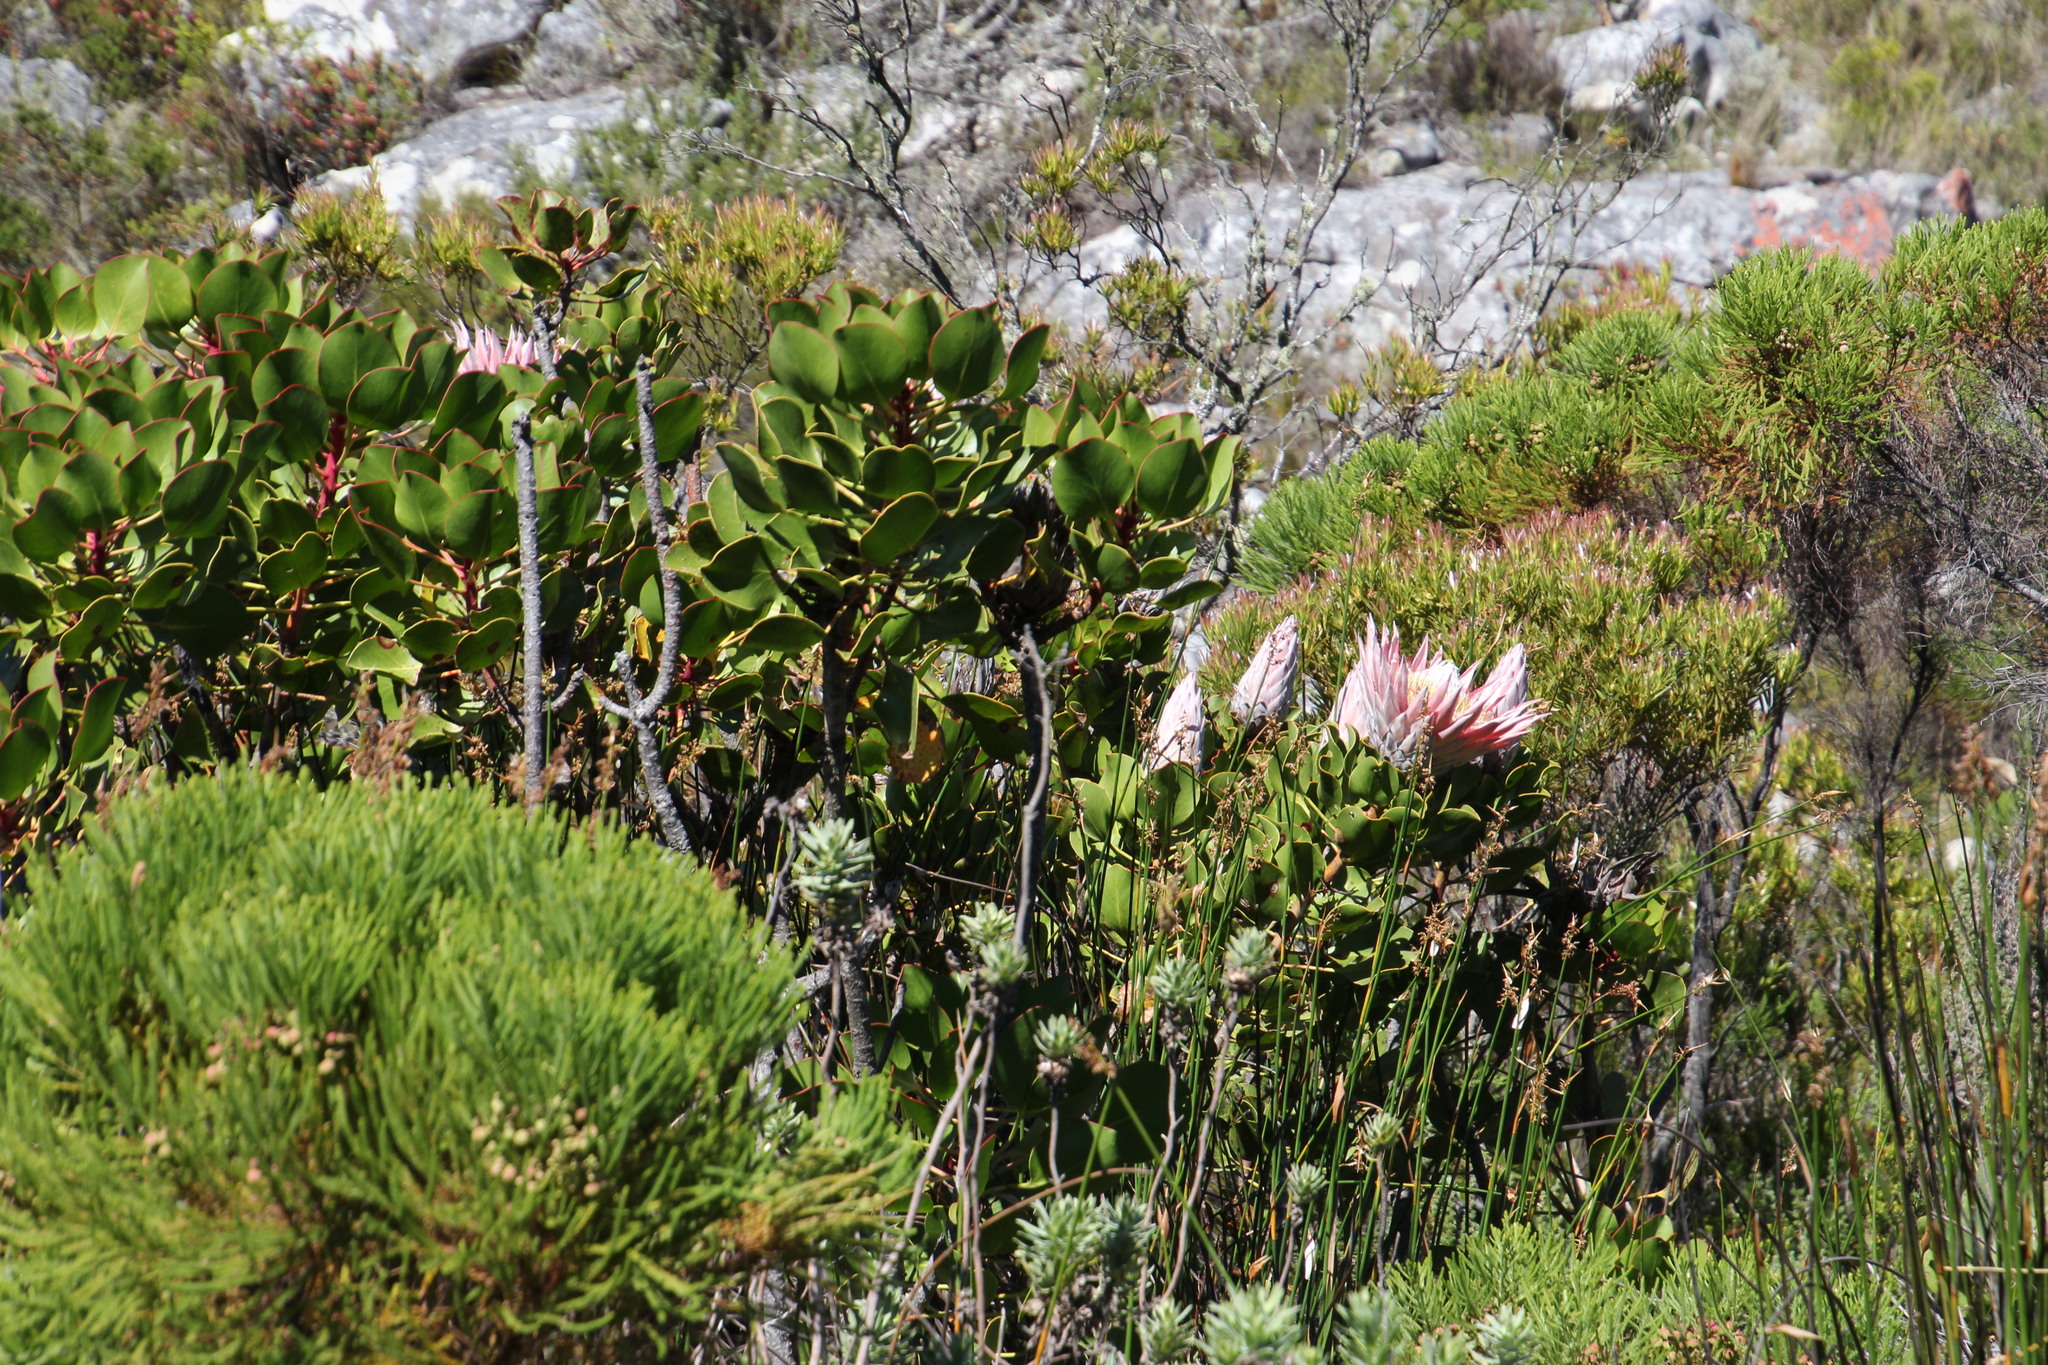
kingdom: Plantae
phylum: Tracheophyta
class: Magnoliopsida
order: Proteales
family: Proteaceae
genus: Protea
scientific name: Protea cynaroides
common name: King protea
